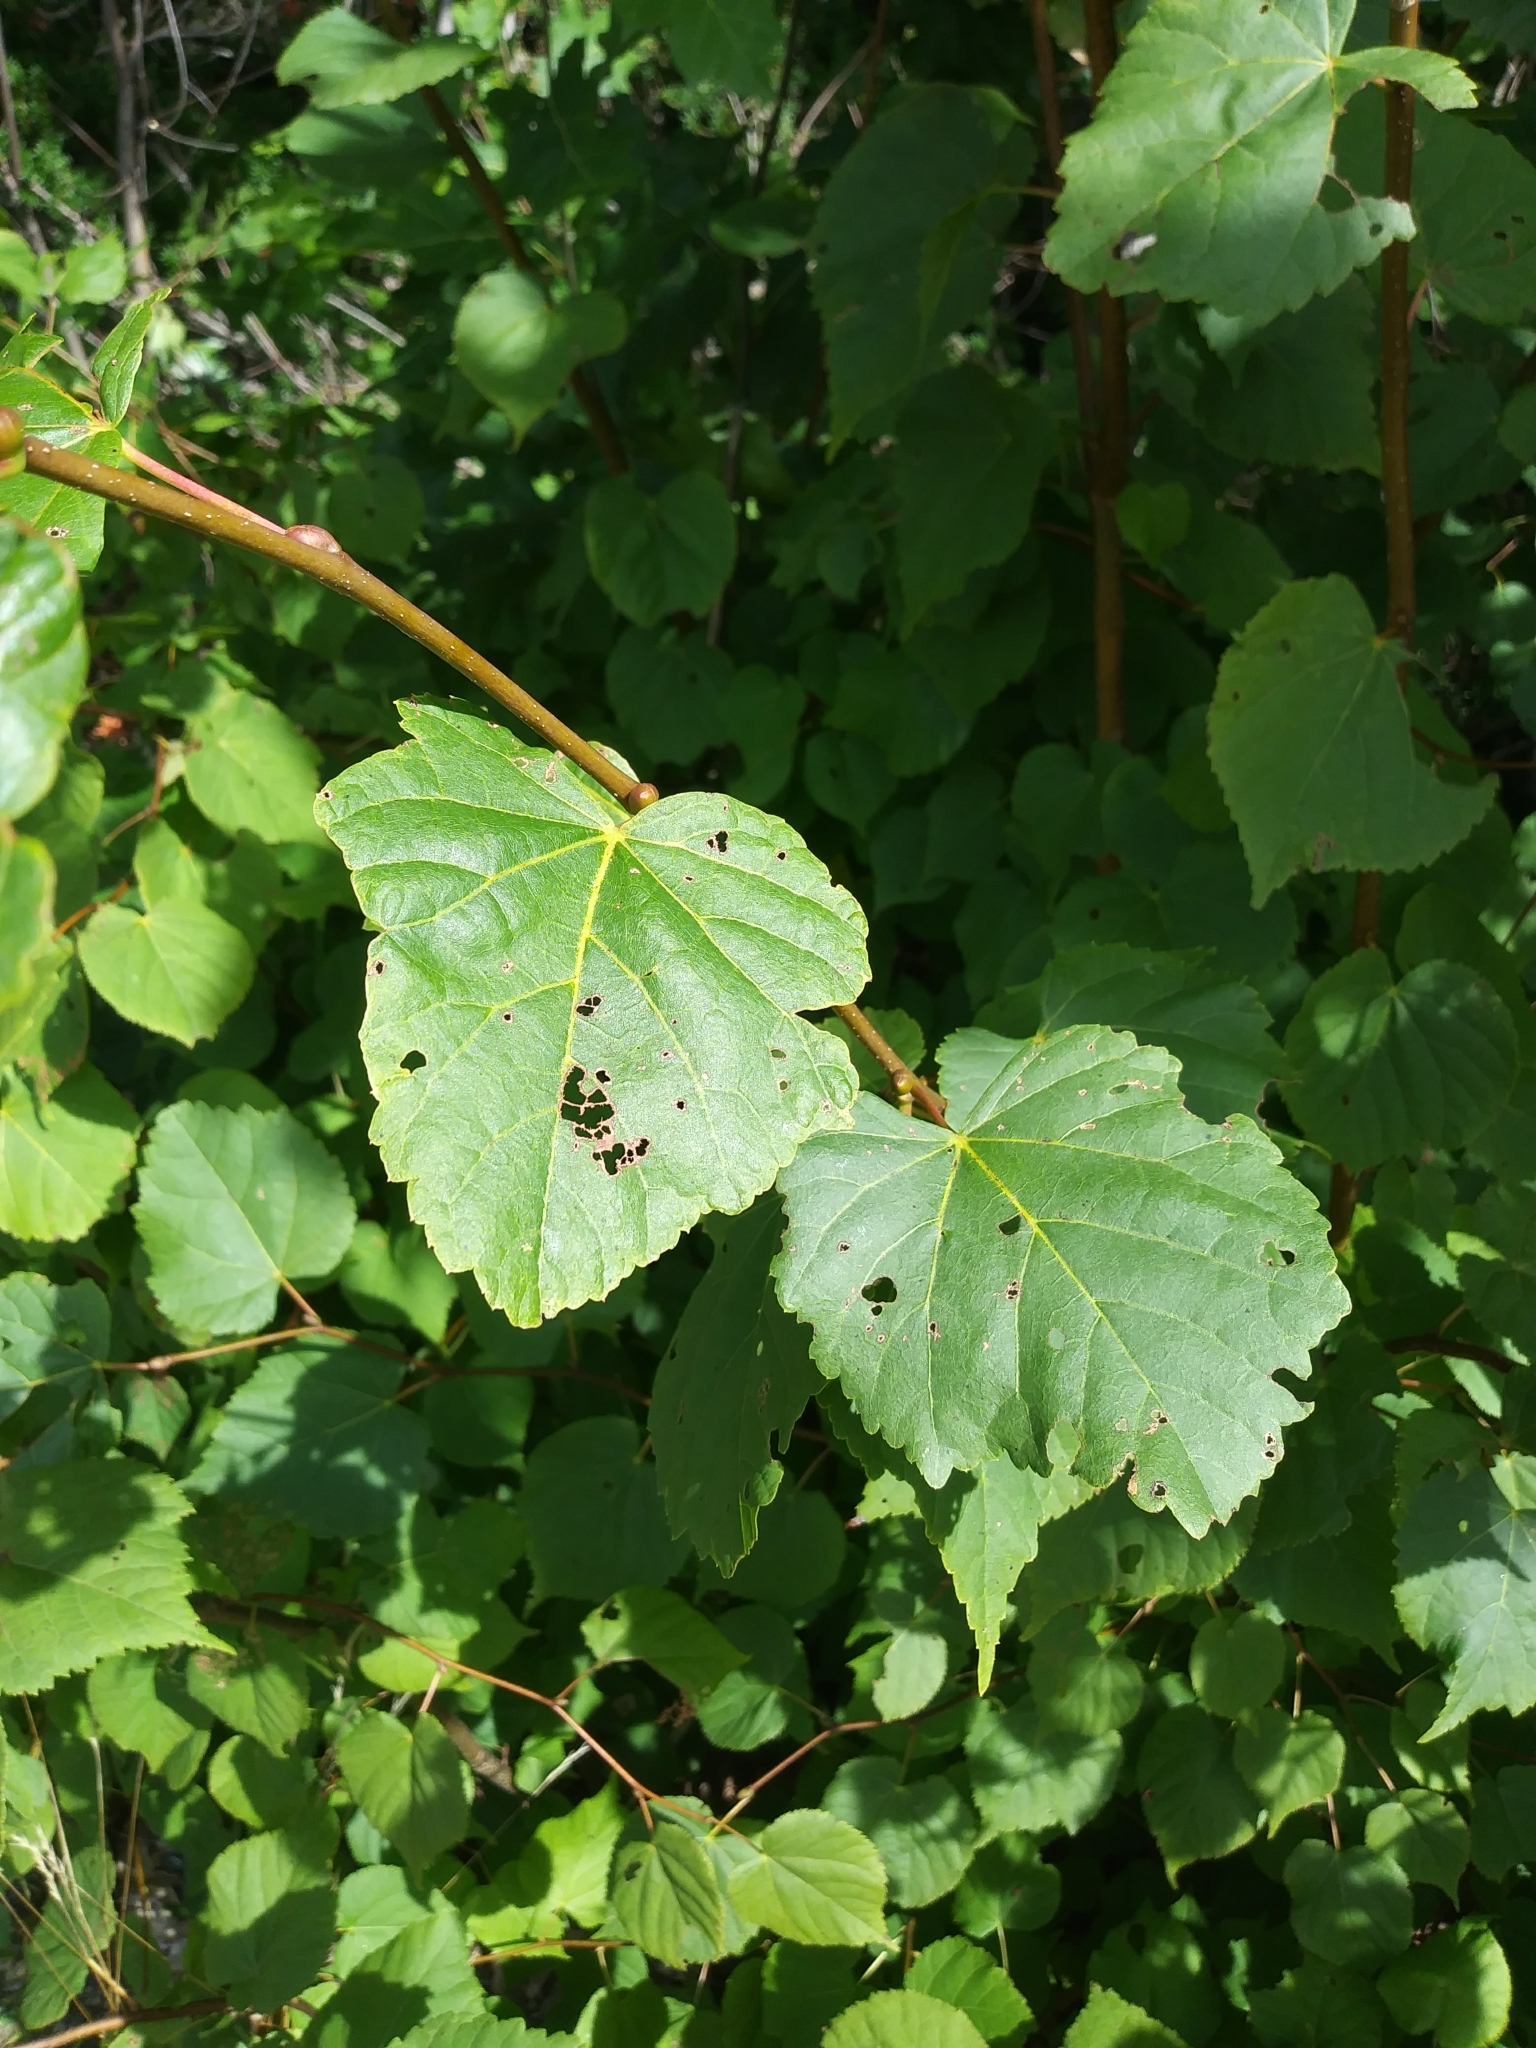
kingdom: Plantae
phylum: Tracheophyta
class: Magnoliopsida
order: Malvales
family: Malvaceae
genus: Tilia
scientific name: Tilia americana
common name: Basswood
